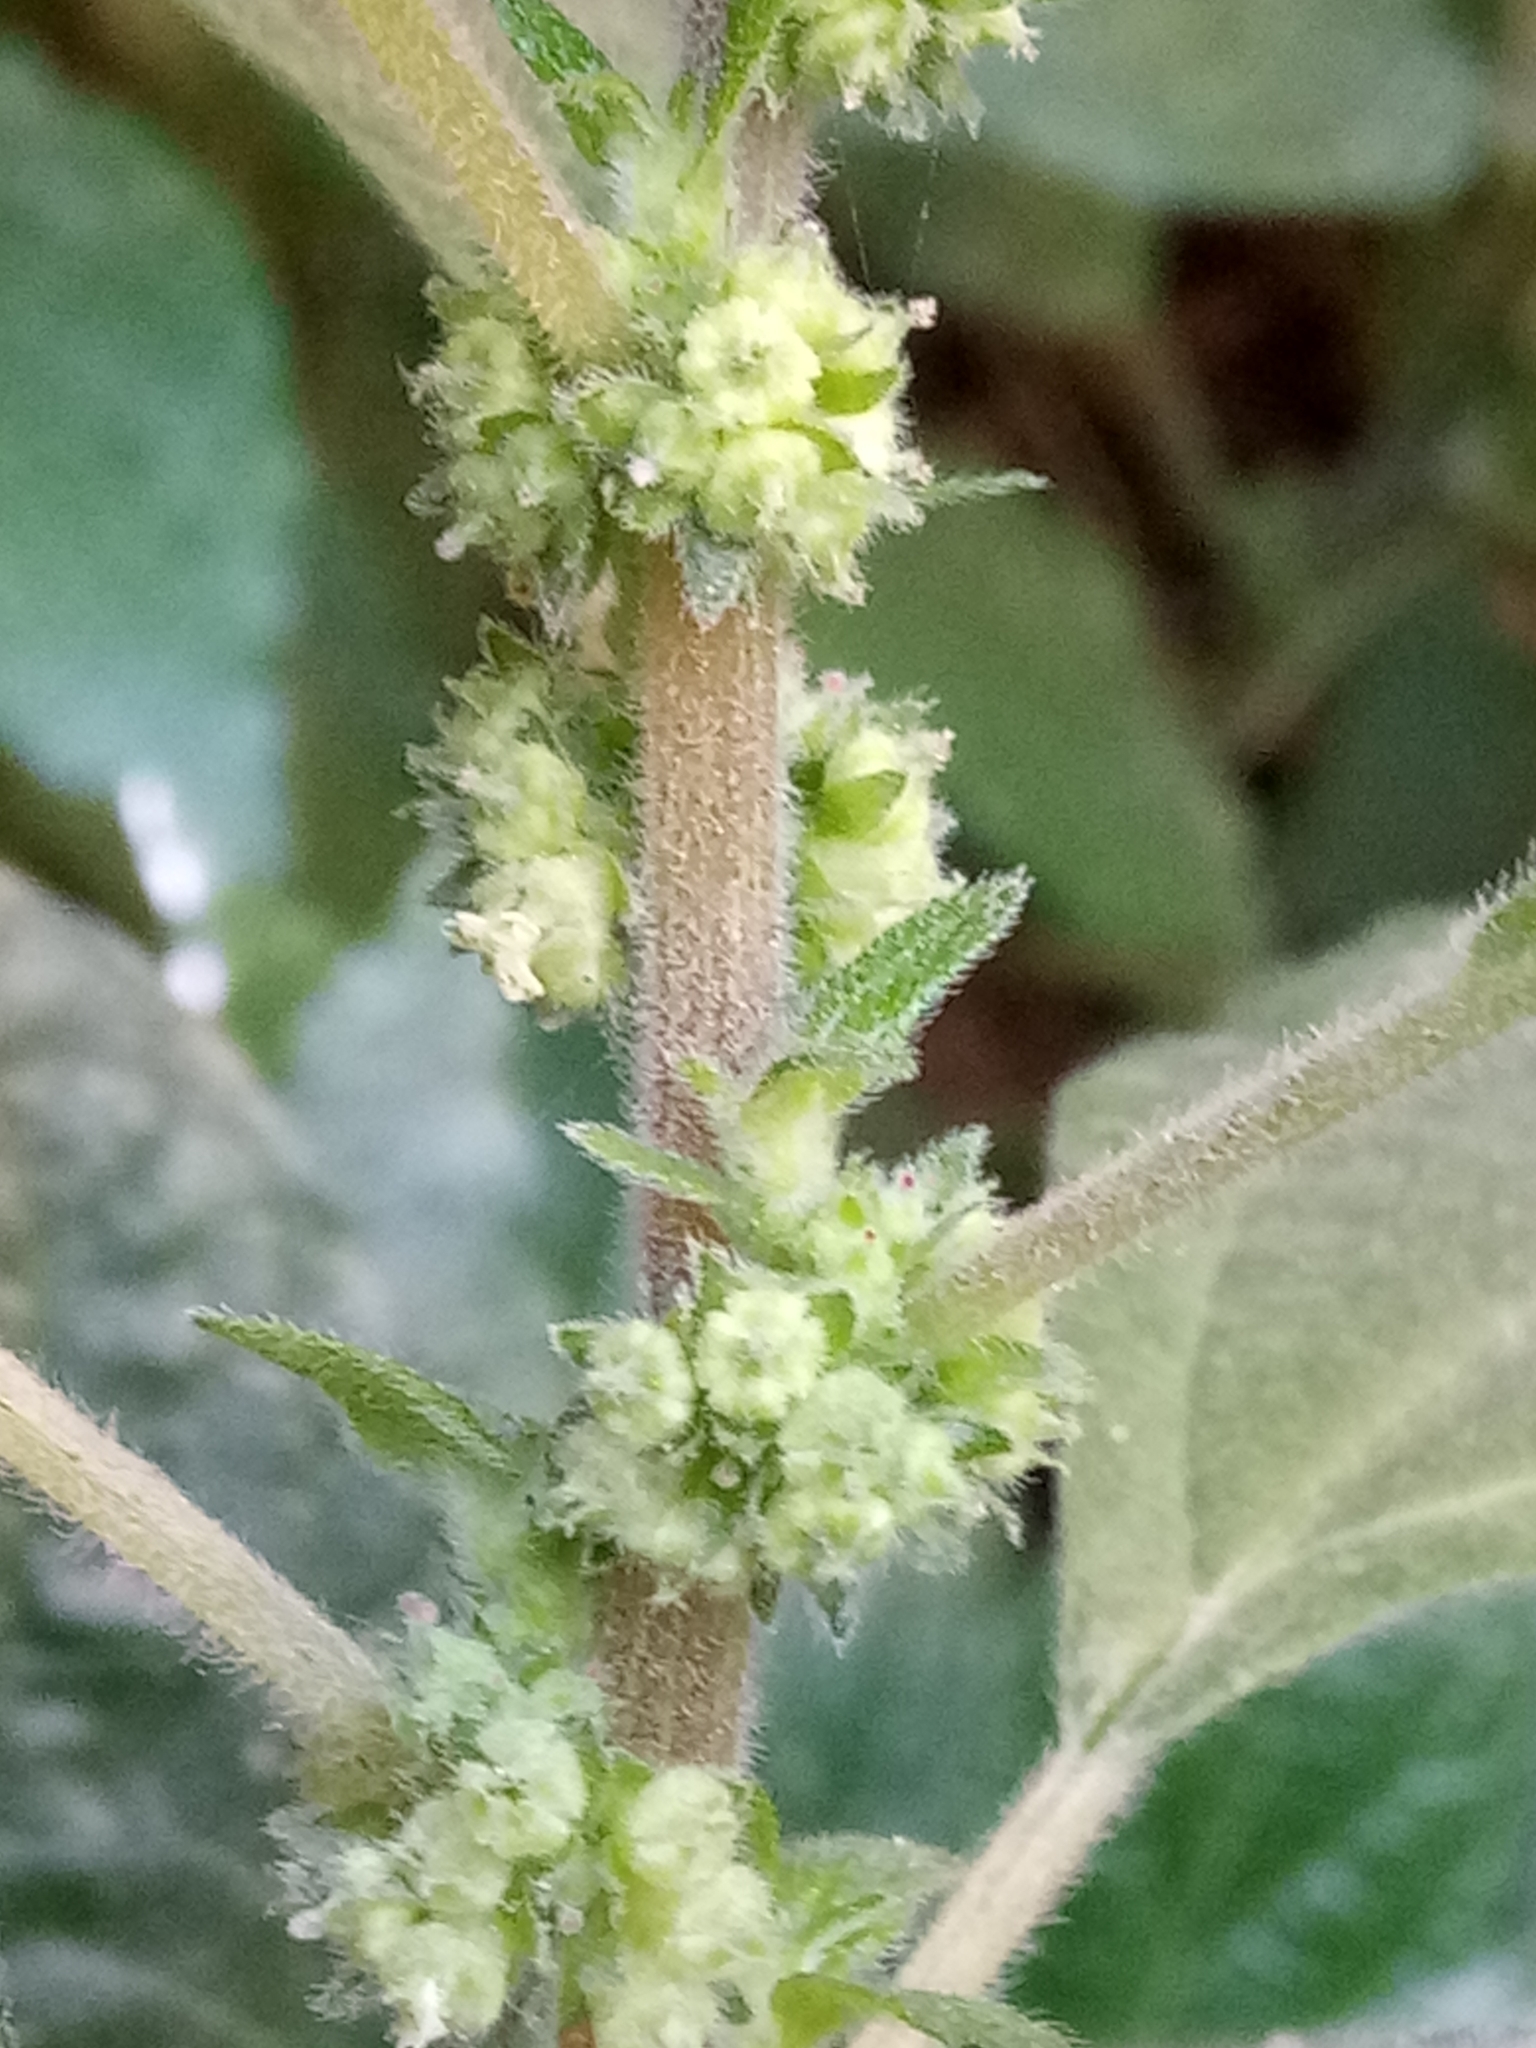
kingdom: Plantae
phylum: Tracheophyta
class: Magnoliopsida
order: Rosales
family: Urticaceae
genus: Parietaria
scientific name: Parietaria judaica
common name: Pellitory-of-the-wall
